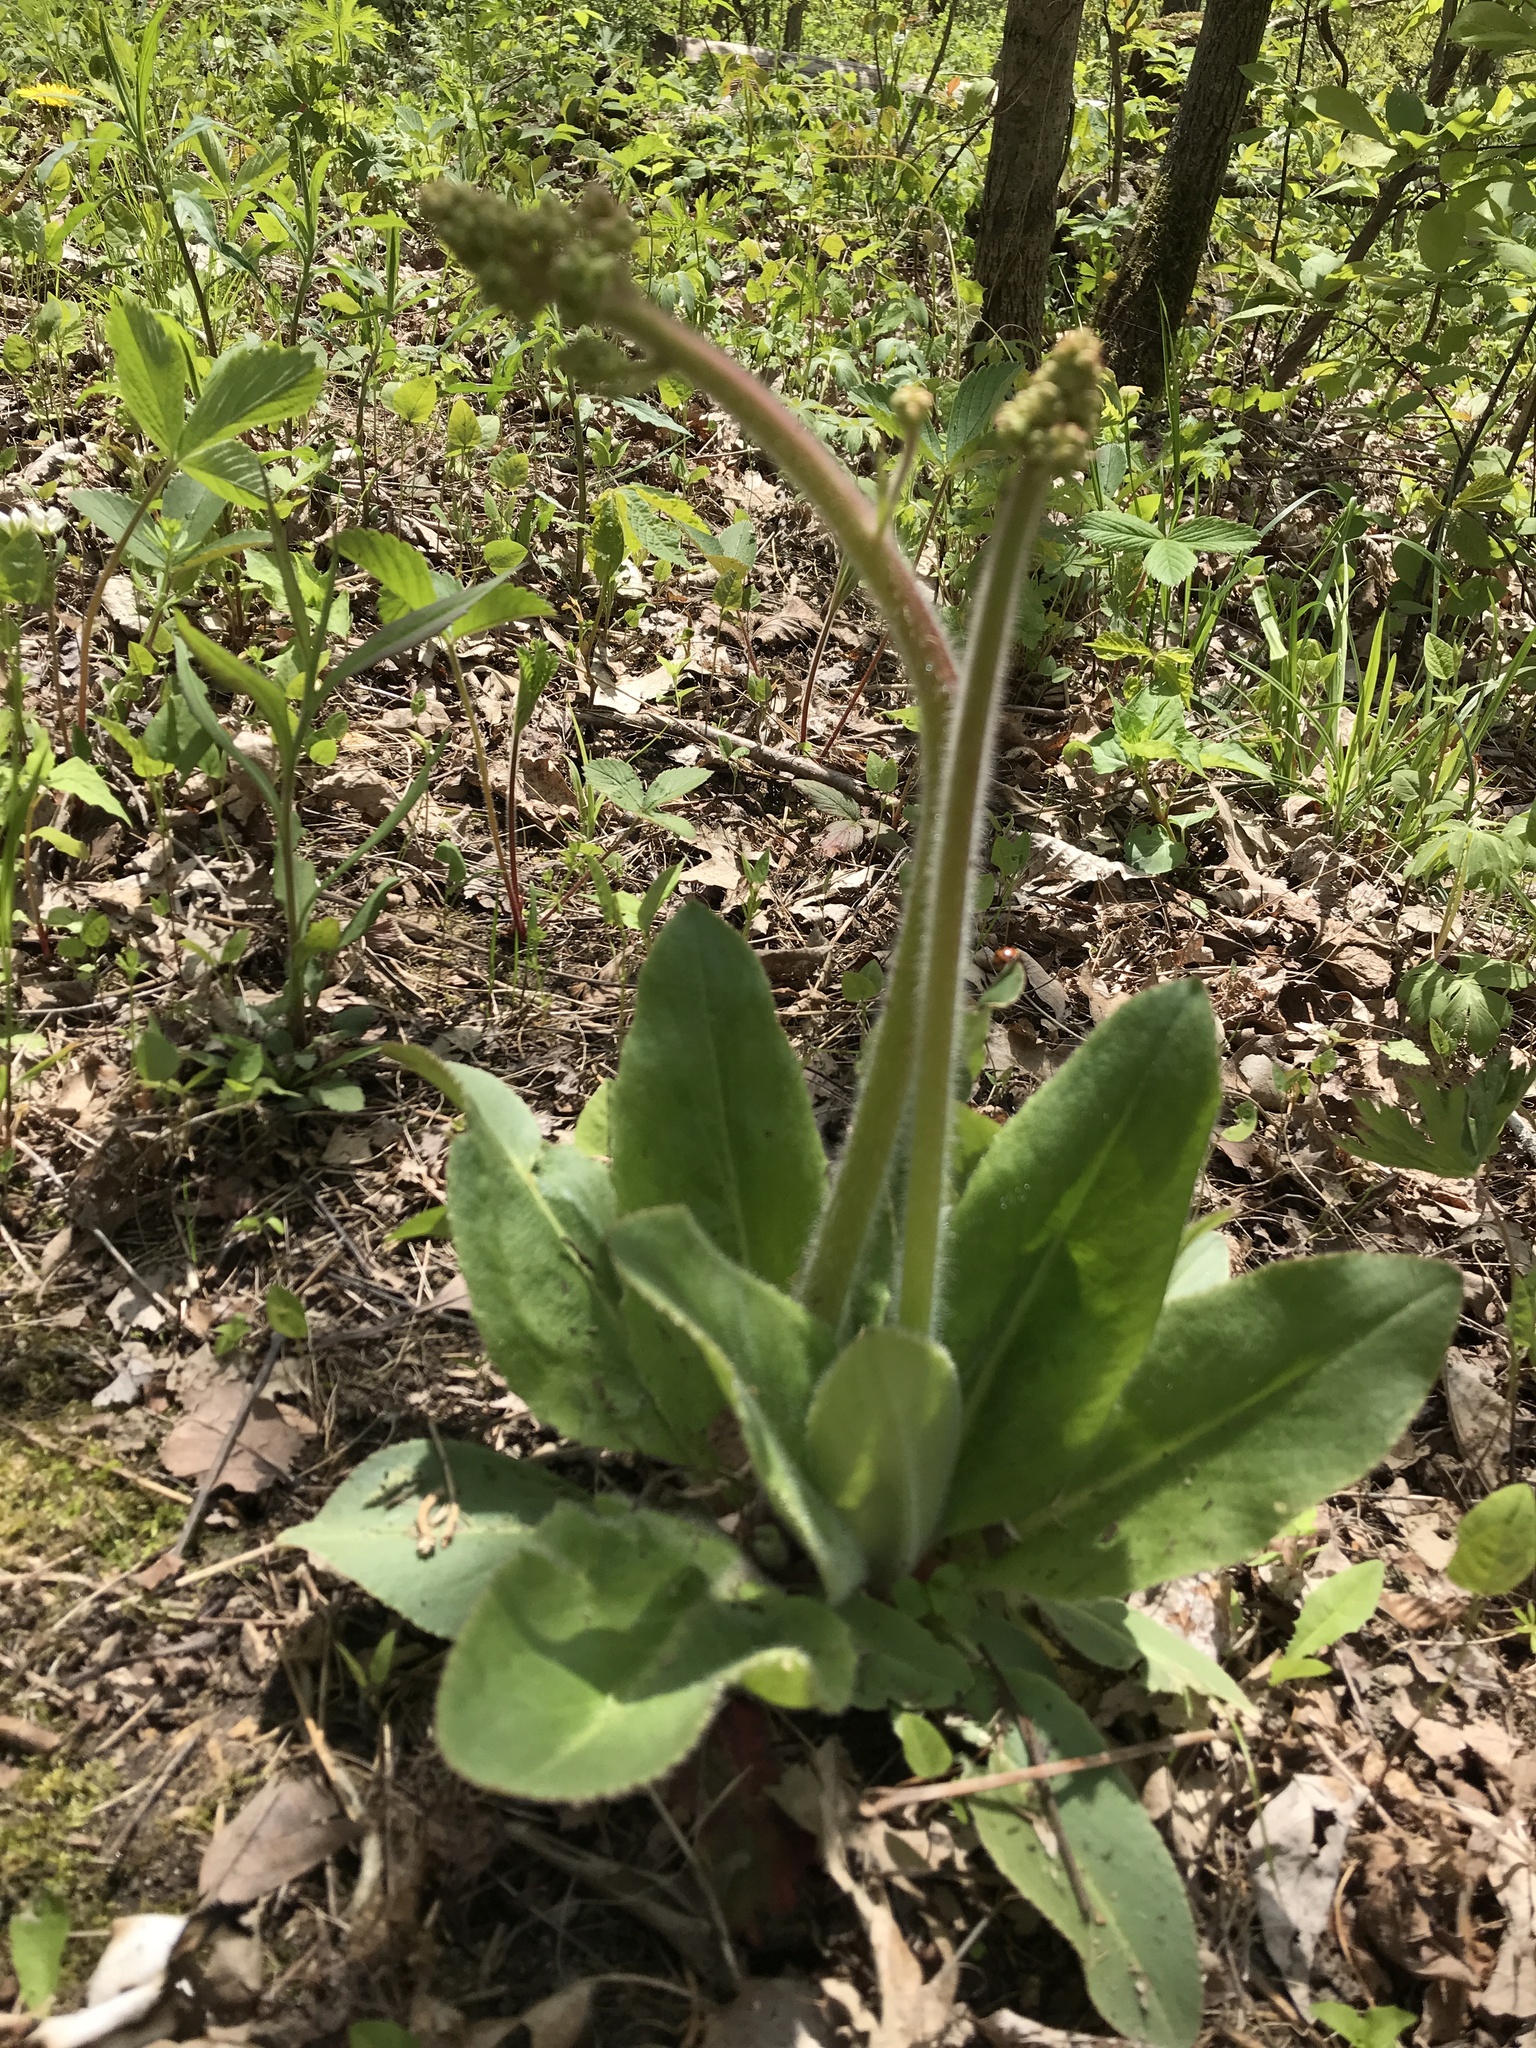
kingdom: Plantae
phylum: Tracheophyta
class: Magnoliopsida
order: Saxifragales
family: Saxifragaceae
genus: Micranthes
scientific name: Micranthes pensylvanica
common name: Marsh saxifrage
